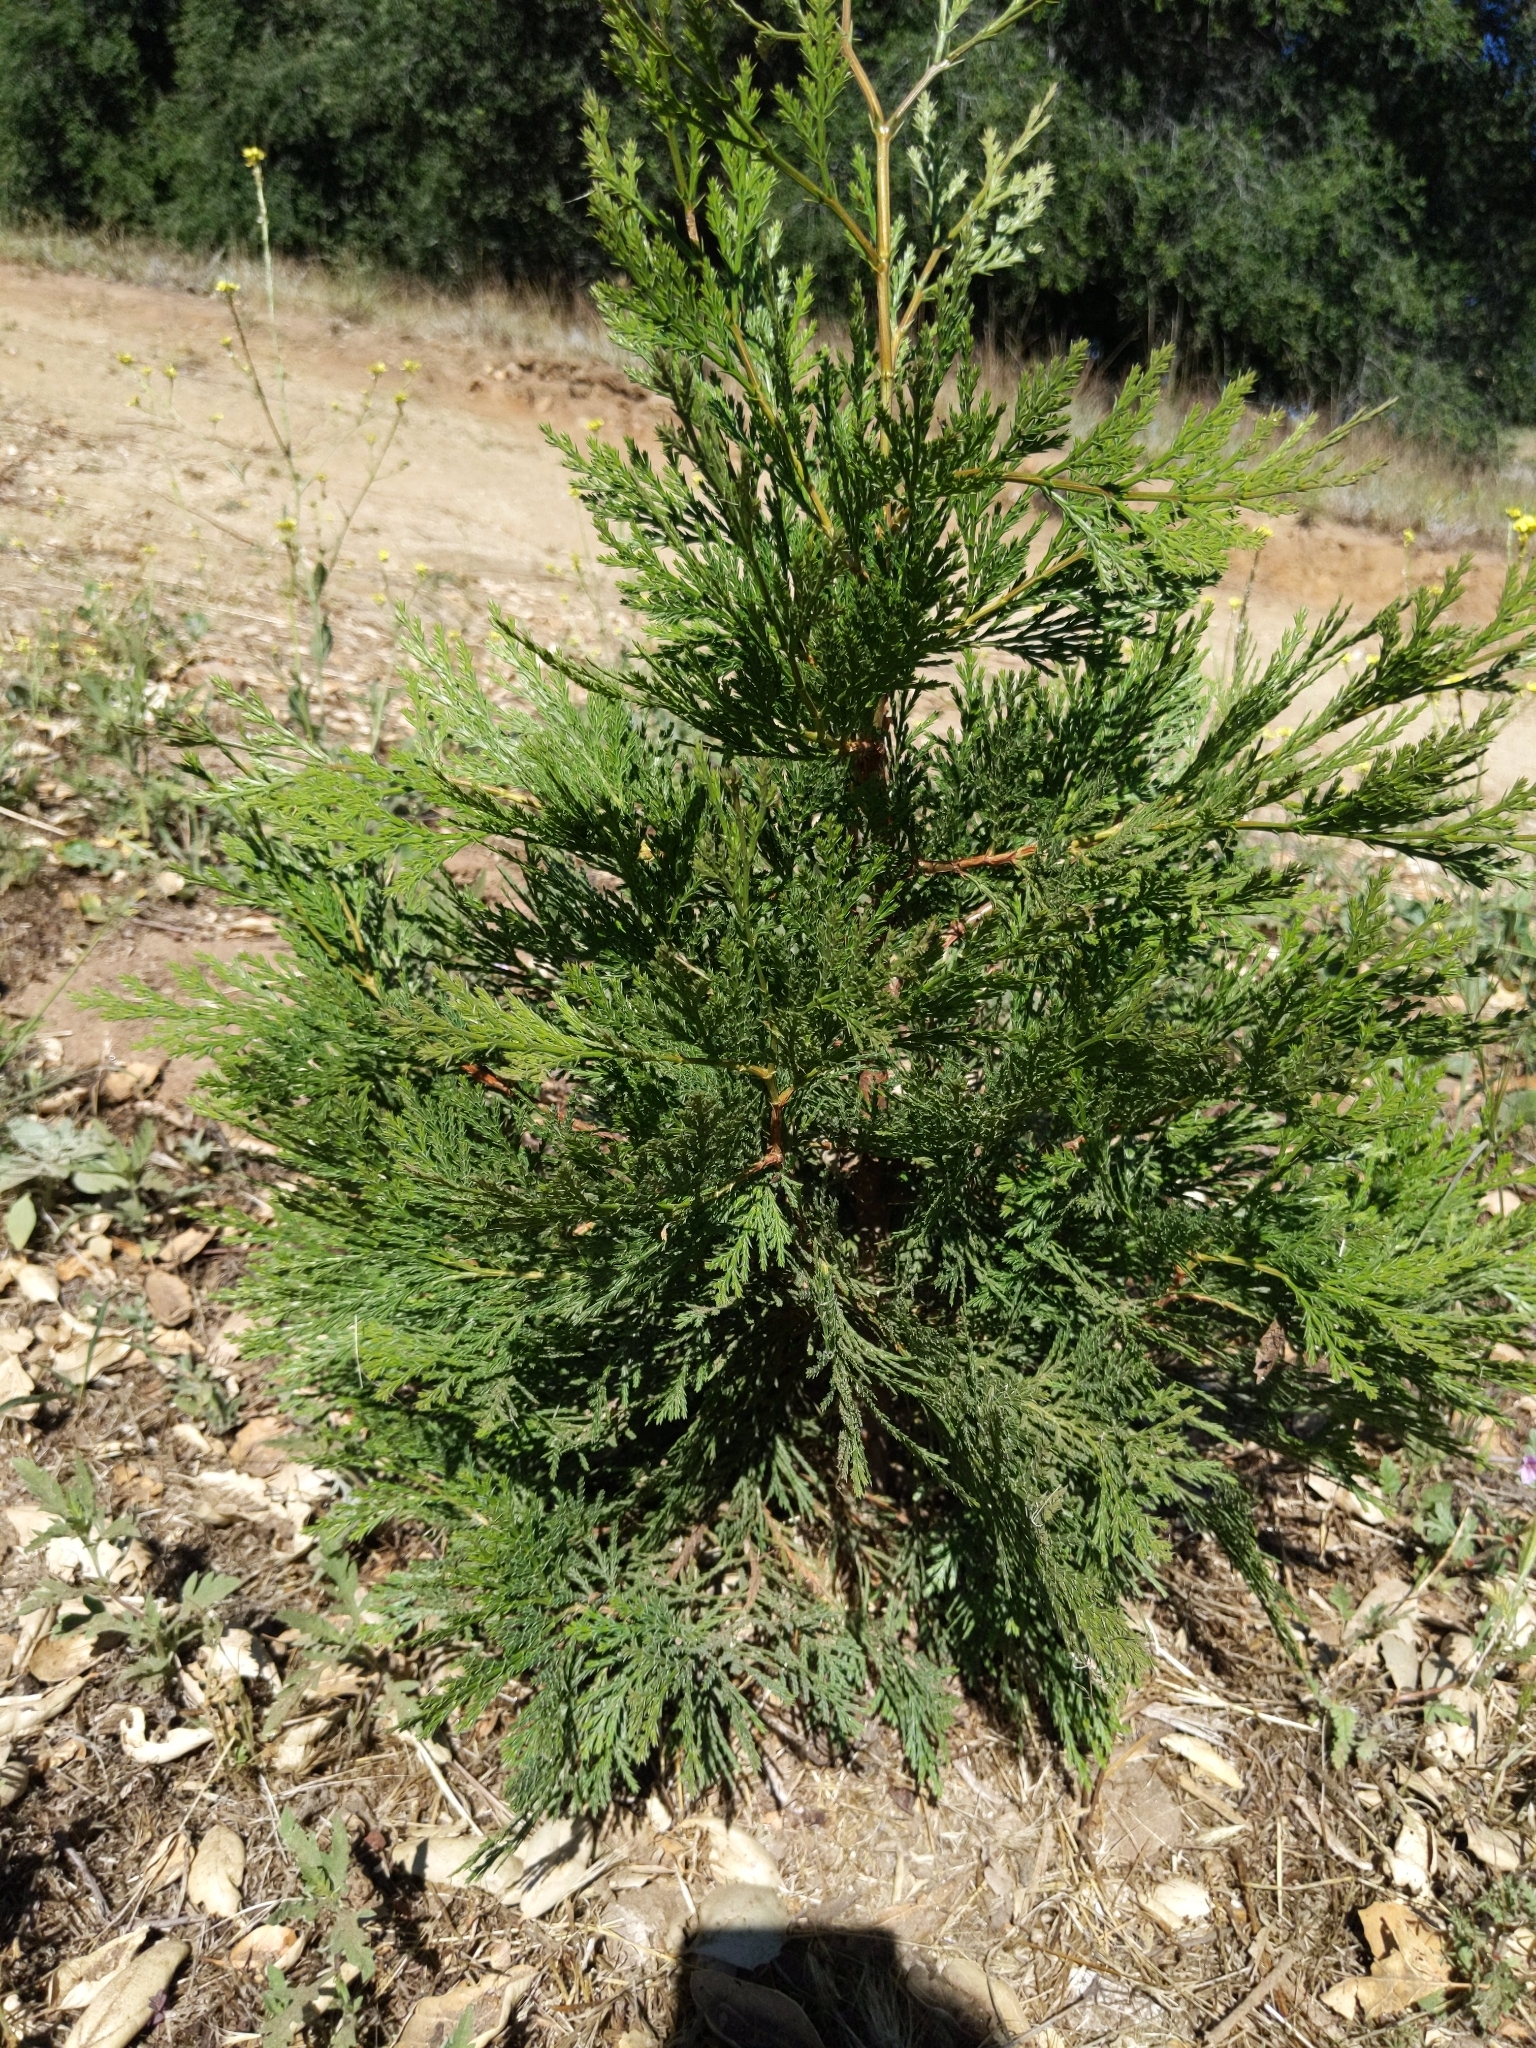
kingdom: Plantae
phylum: Tracheophyta
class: Pinopsida
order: Pinales
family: Cupressaceae
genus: Calocedrus
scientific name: Calocedrus decurrens
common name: Californian incense-cedar
